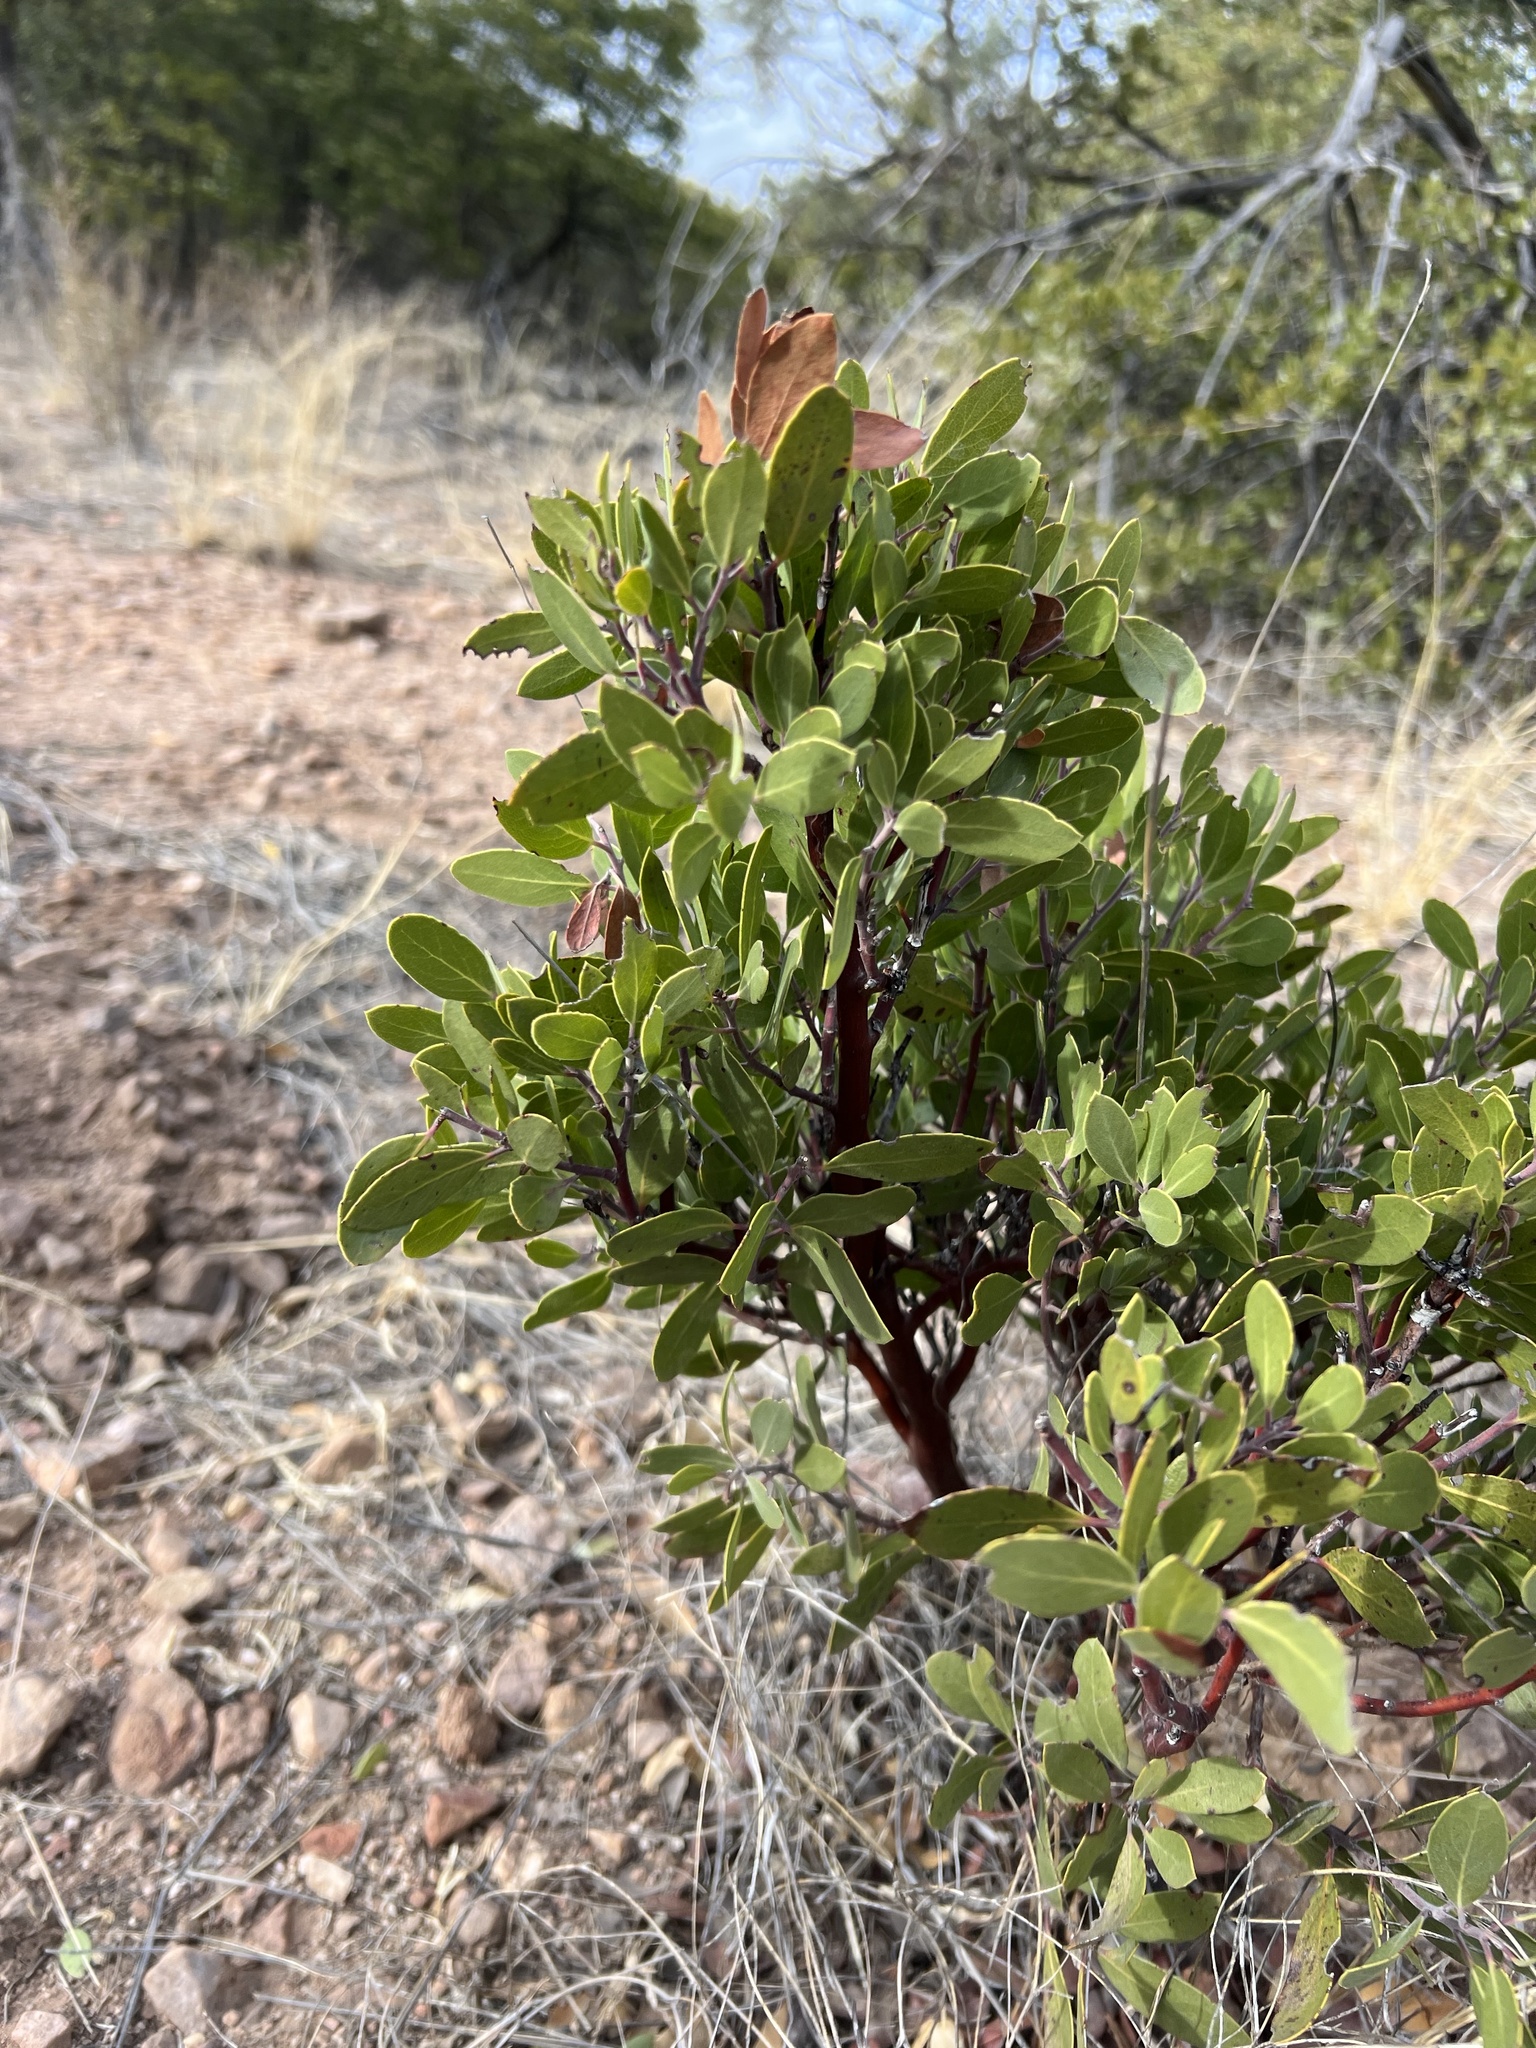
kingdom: Plantae
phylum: Tracheophyta
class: Magnoliopsida
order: Ericales
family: Ericaceae
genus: Arctostaphylos
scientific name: Arctostaphylos pungens
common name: Mexican manzanita
